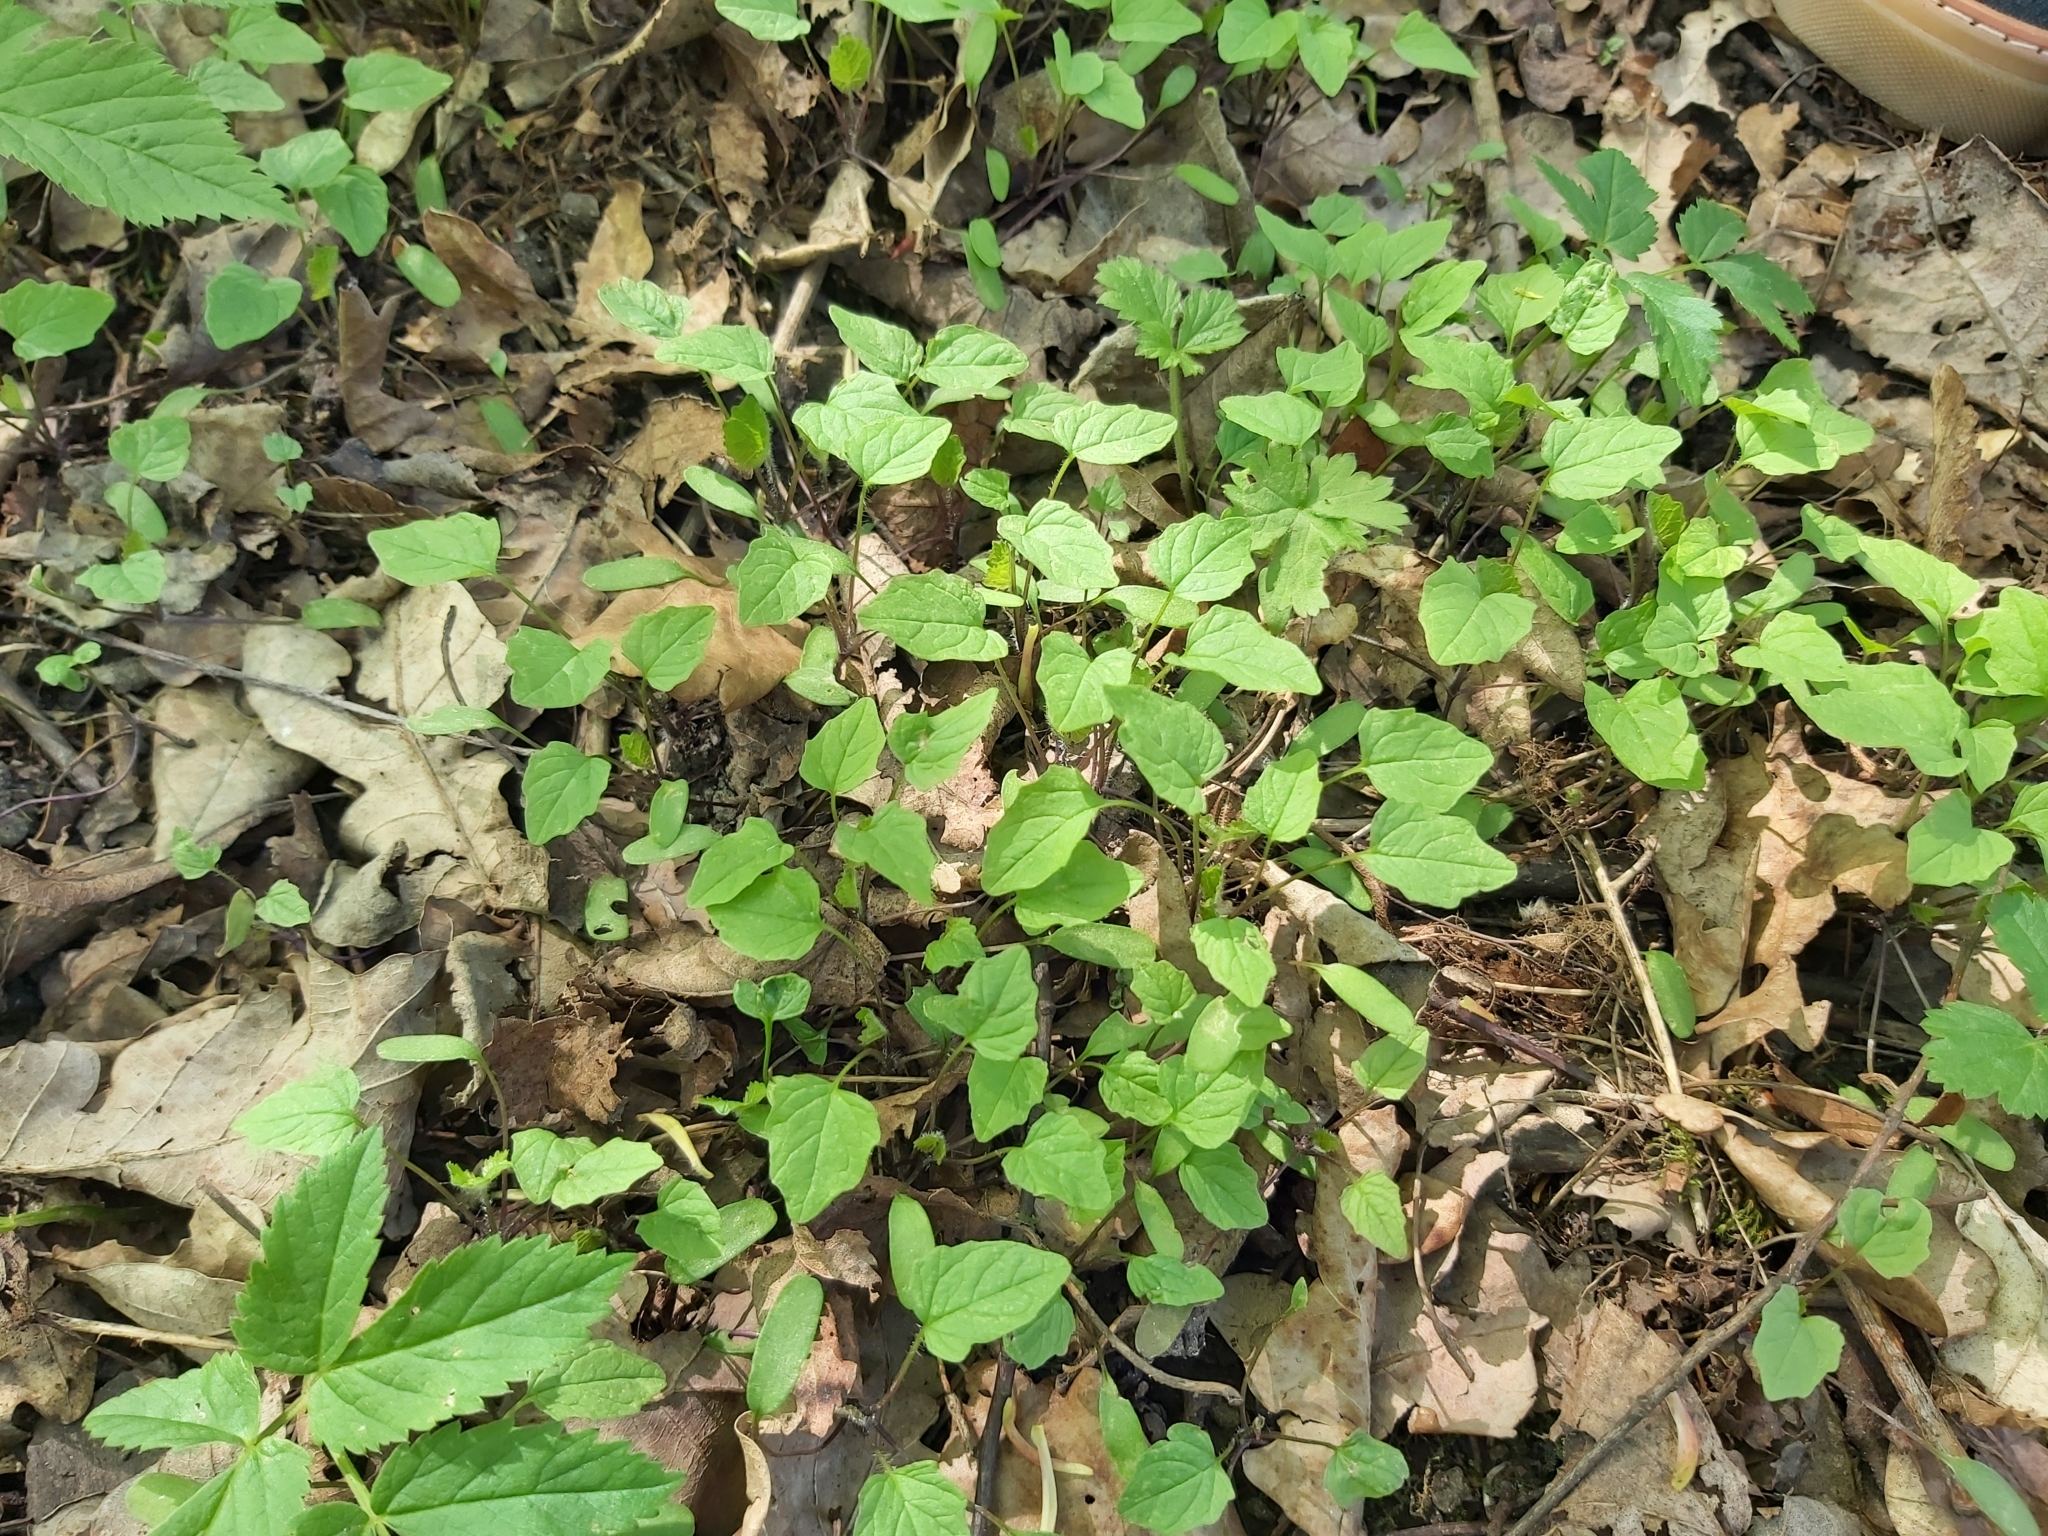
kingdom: Plantae
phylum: Tracheophyta
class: Magnoliopsida
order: Asterales
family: Asteraceae
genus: Lapsana
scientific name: Lapsana communis
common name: Nipplewort
